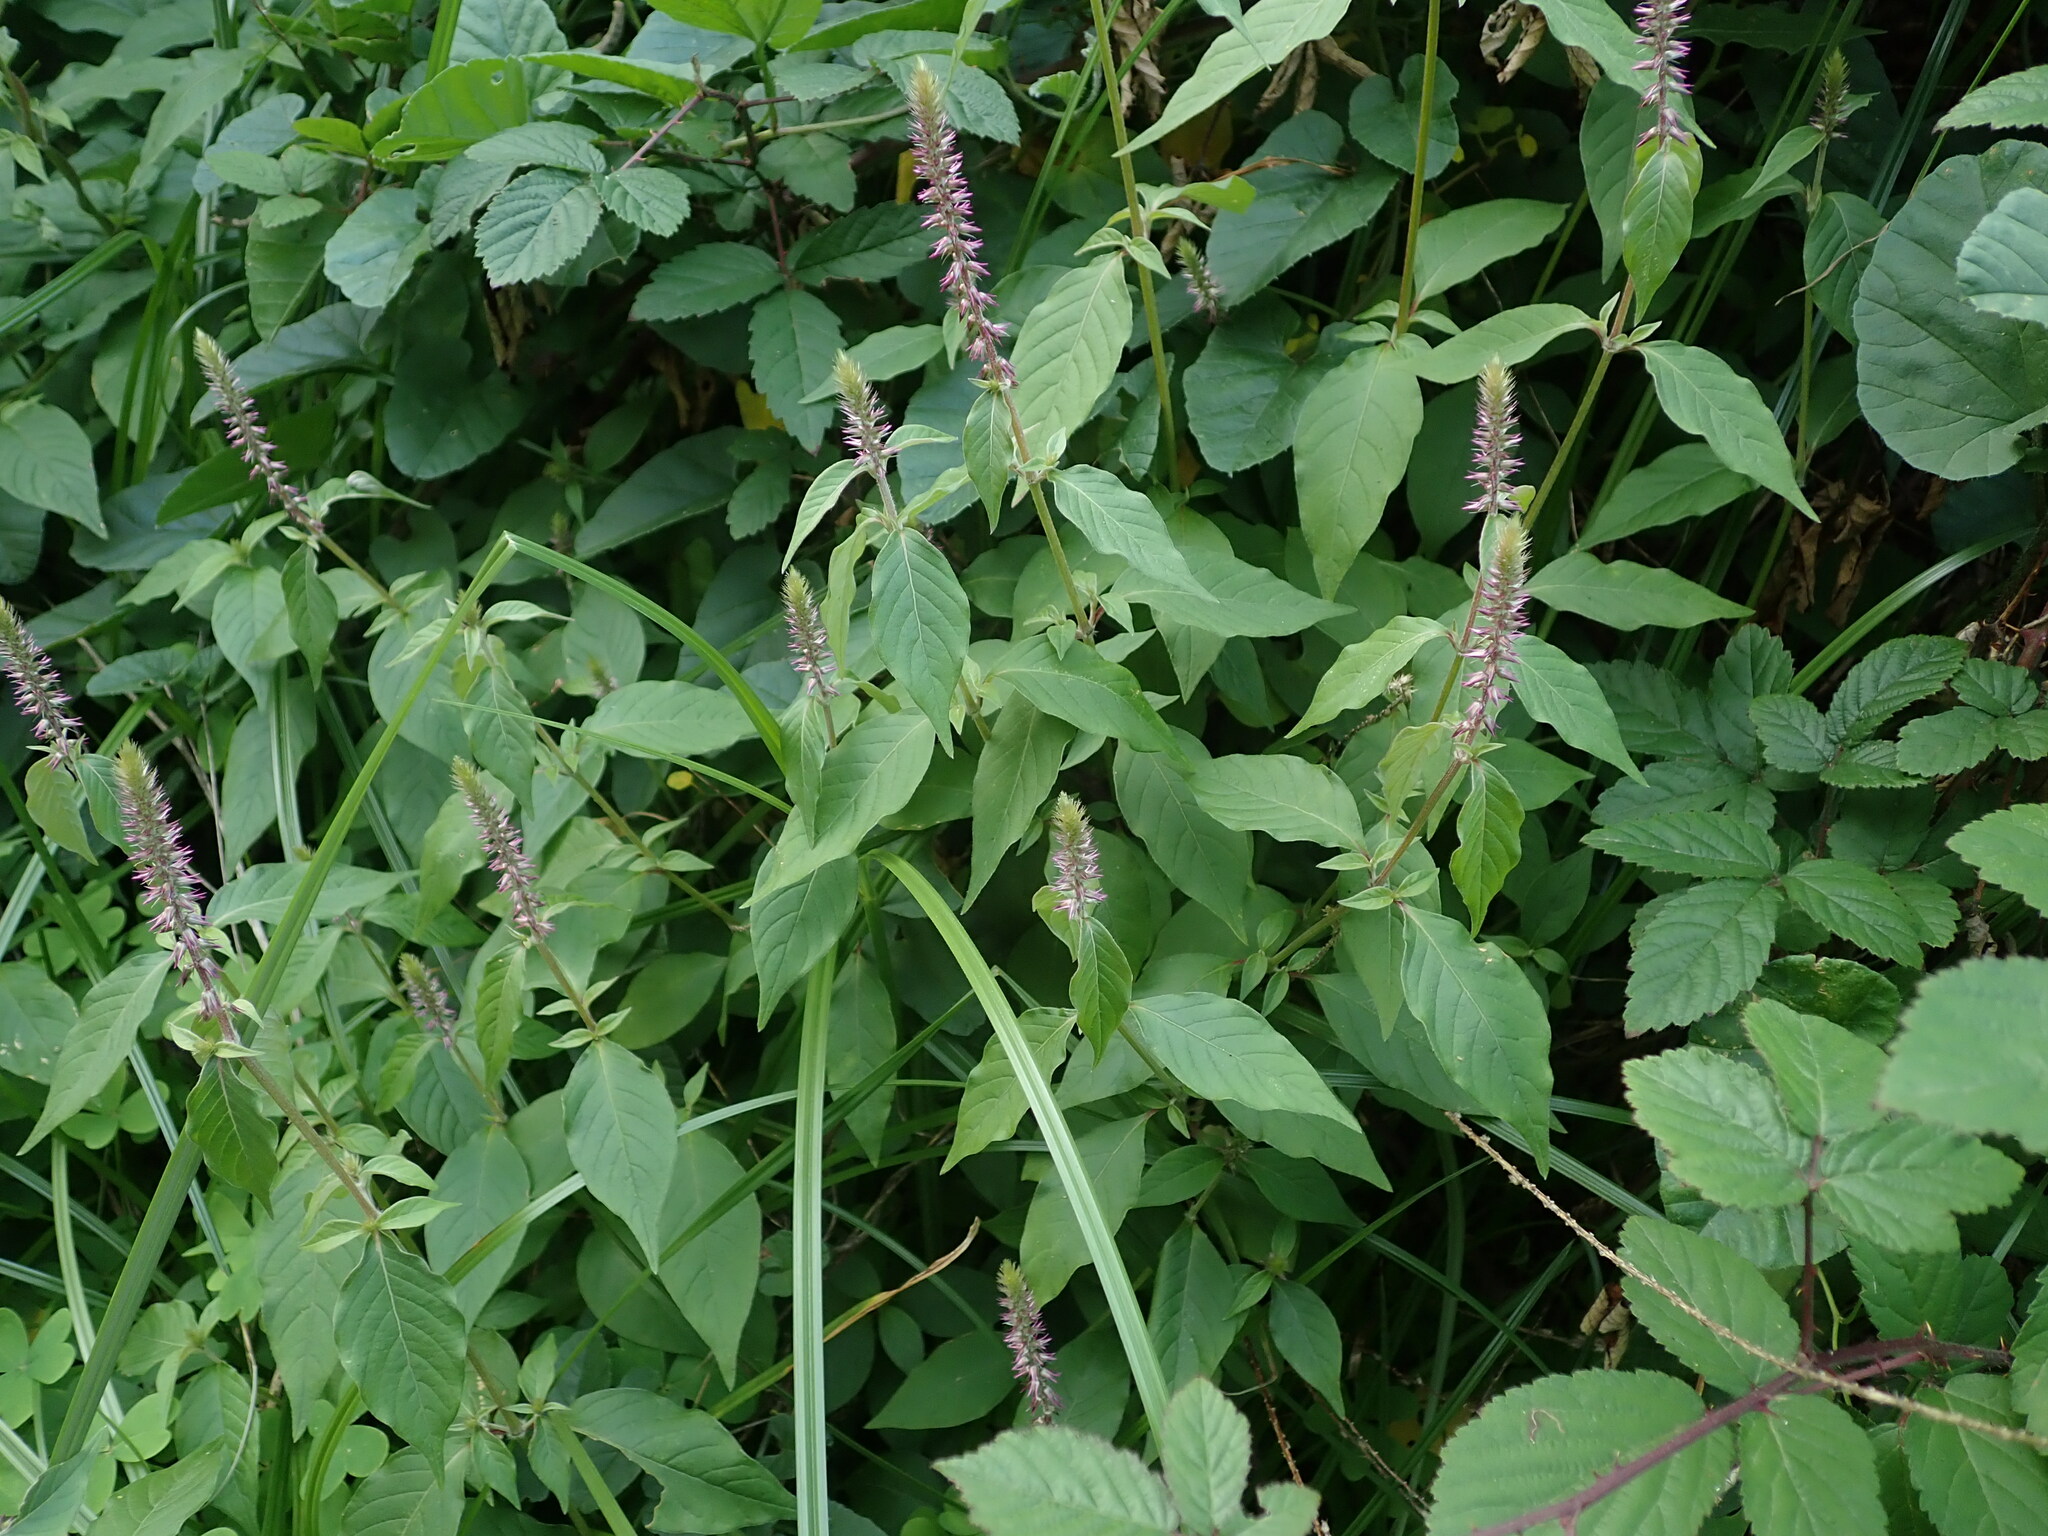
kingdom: Plantae
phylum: Tracheophyta
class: Magnoliopsida
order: Caryophyllales
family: Amaranthaceae
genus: Achyranthes
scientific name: Achyranthes aspera
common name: Devil's horsewhip
